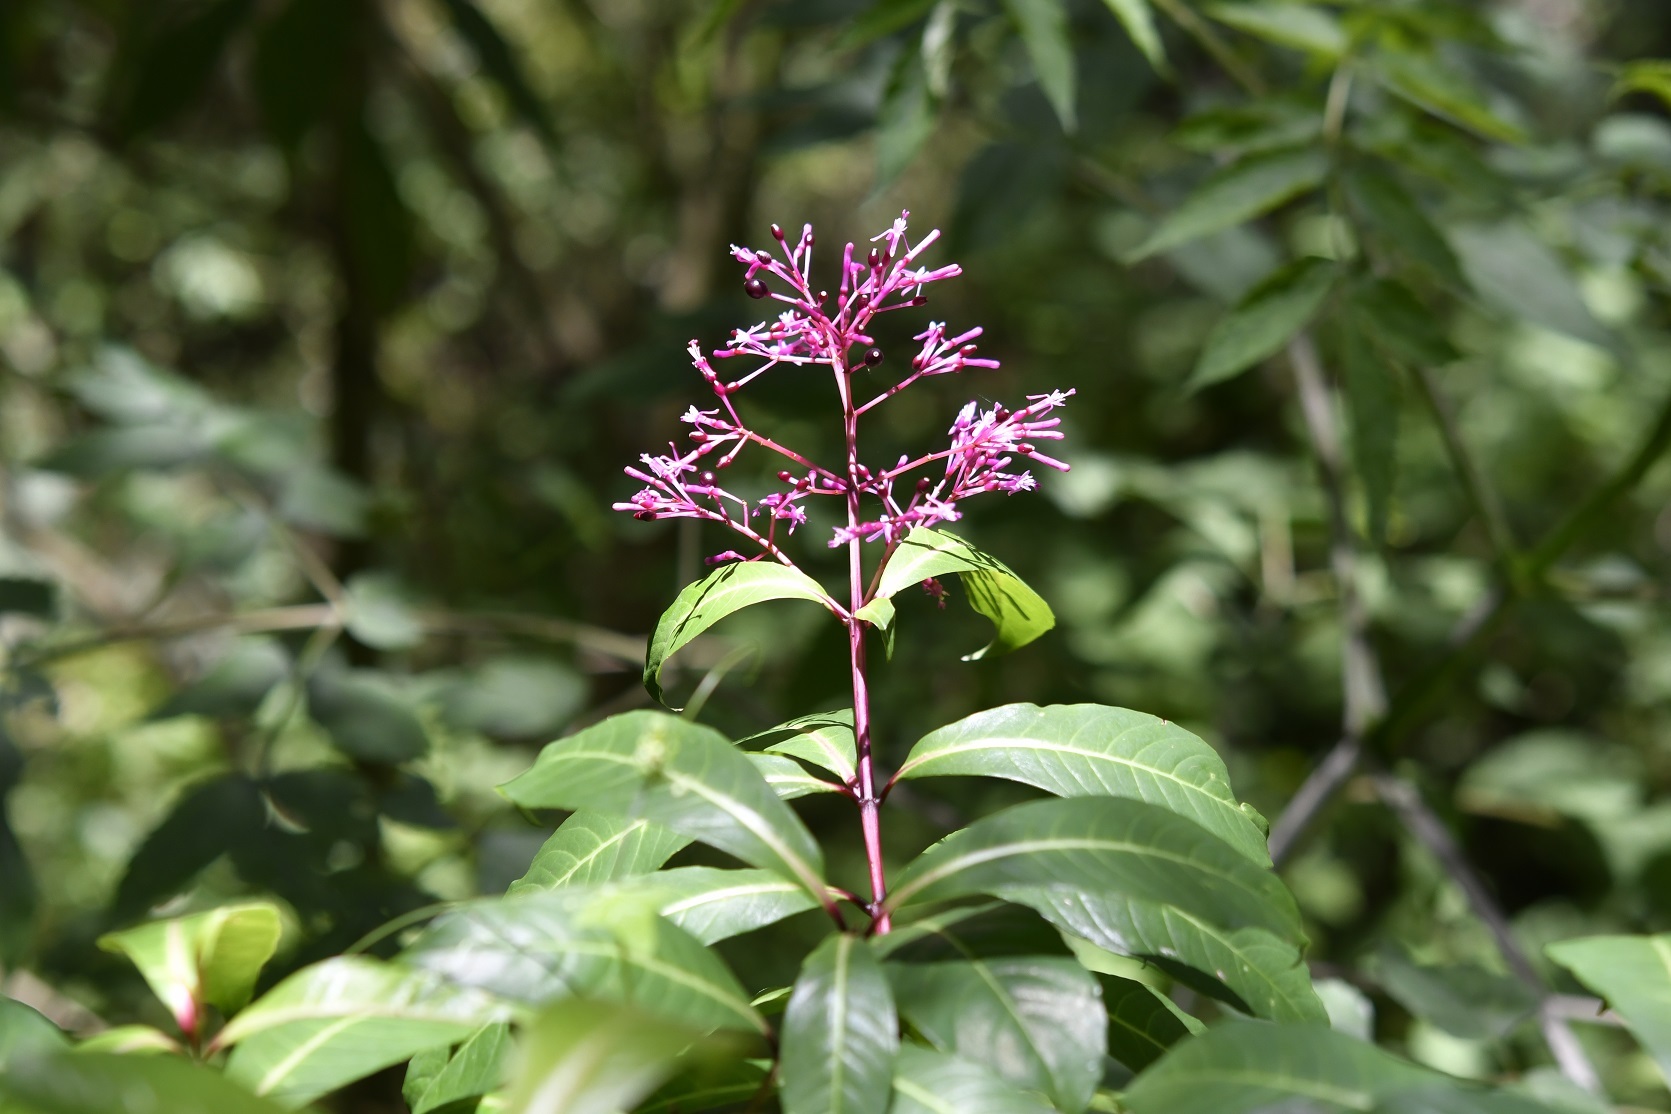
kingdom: Plantae
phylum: Tracheophyta
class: Magnoliopsida
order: Myrtales
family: Onagraceae
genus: Fuchsia
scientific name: Fuchsia paniculata
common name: Shrubby fuchsia
